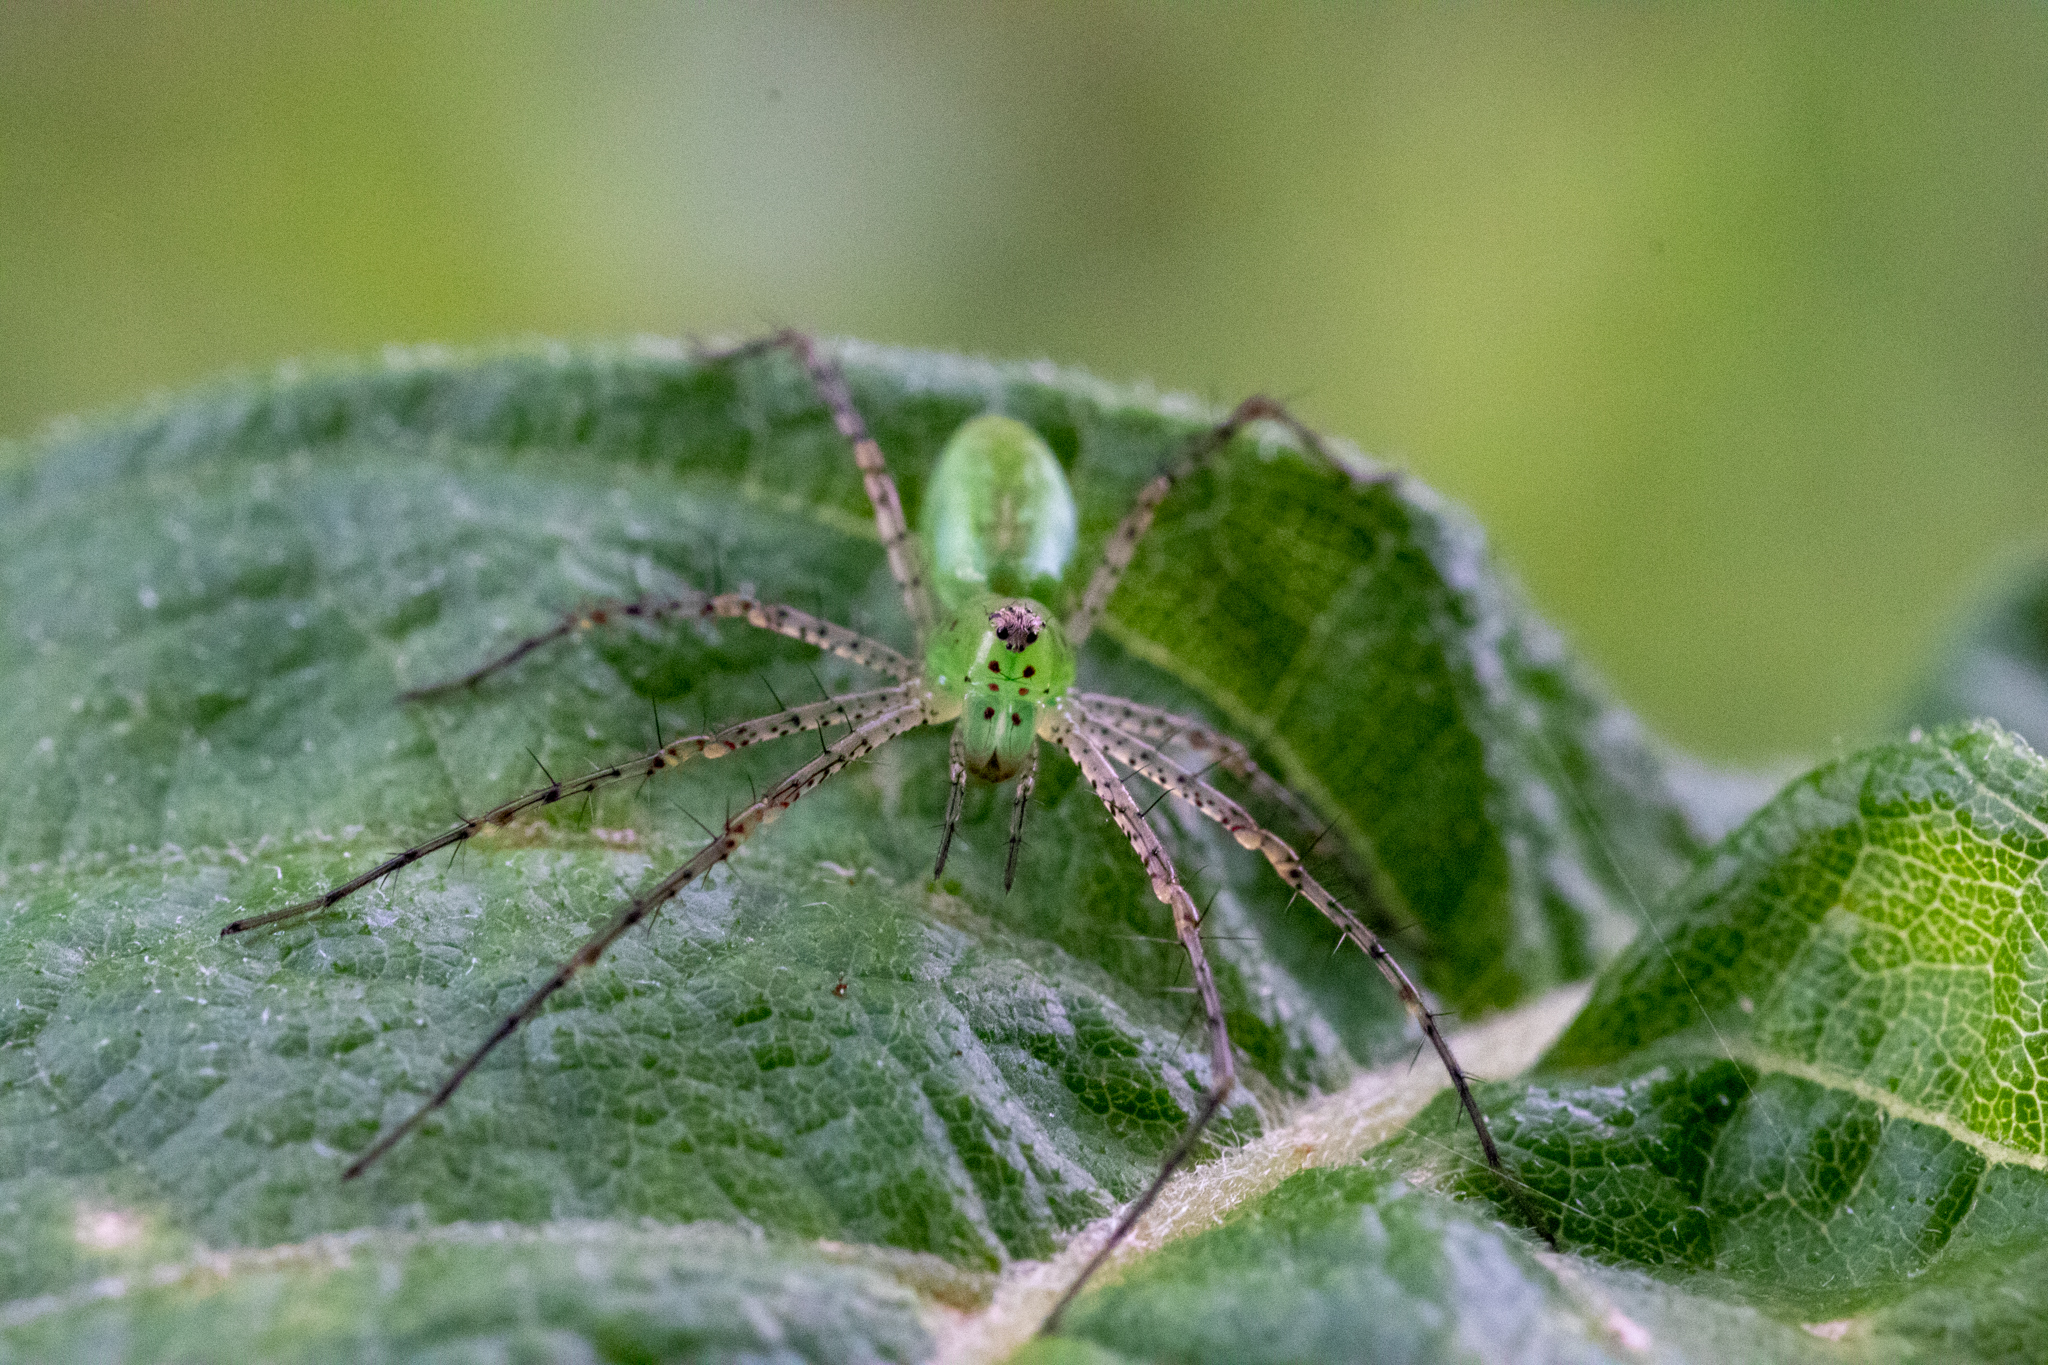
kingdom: Animalia
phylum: Arthropoda
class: Arachnida
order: Araneae
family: Oxyopidae
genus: Peucetia
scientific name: Peucetia viridans
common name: Lynx spiders
